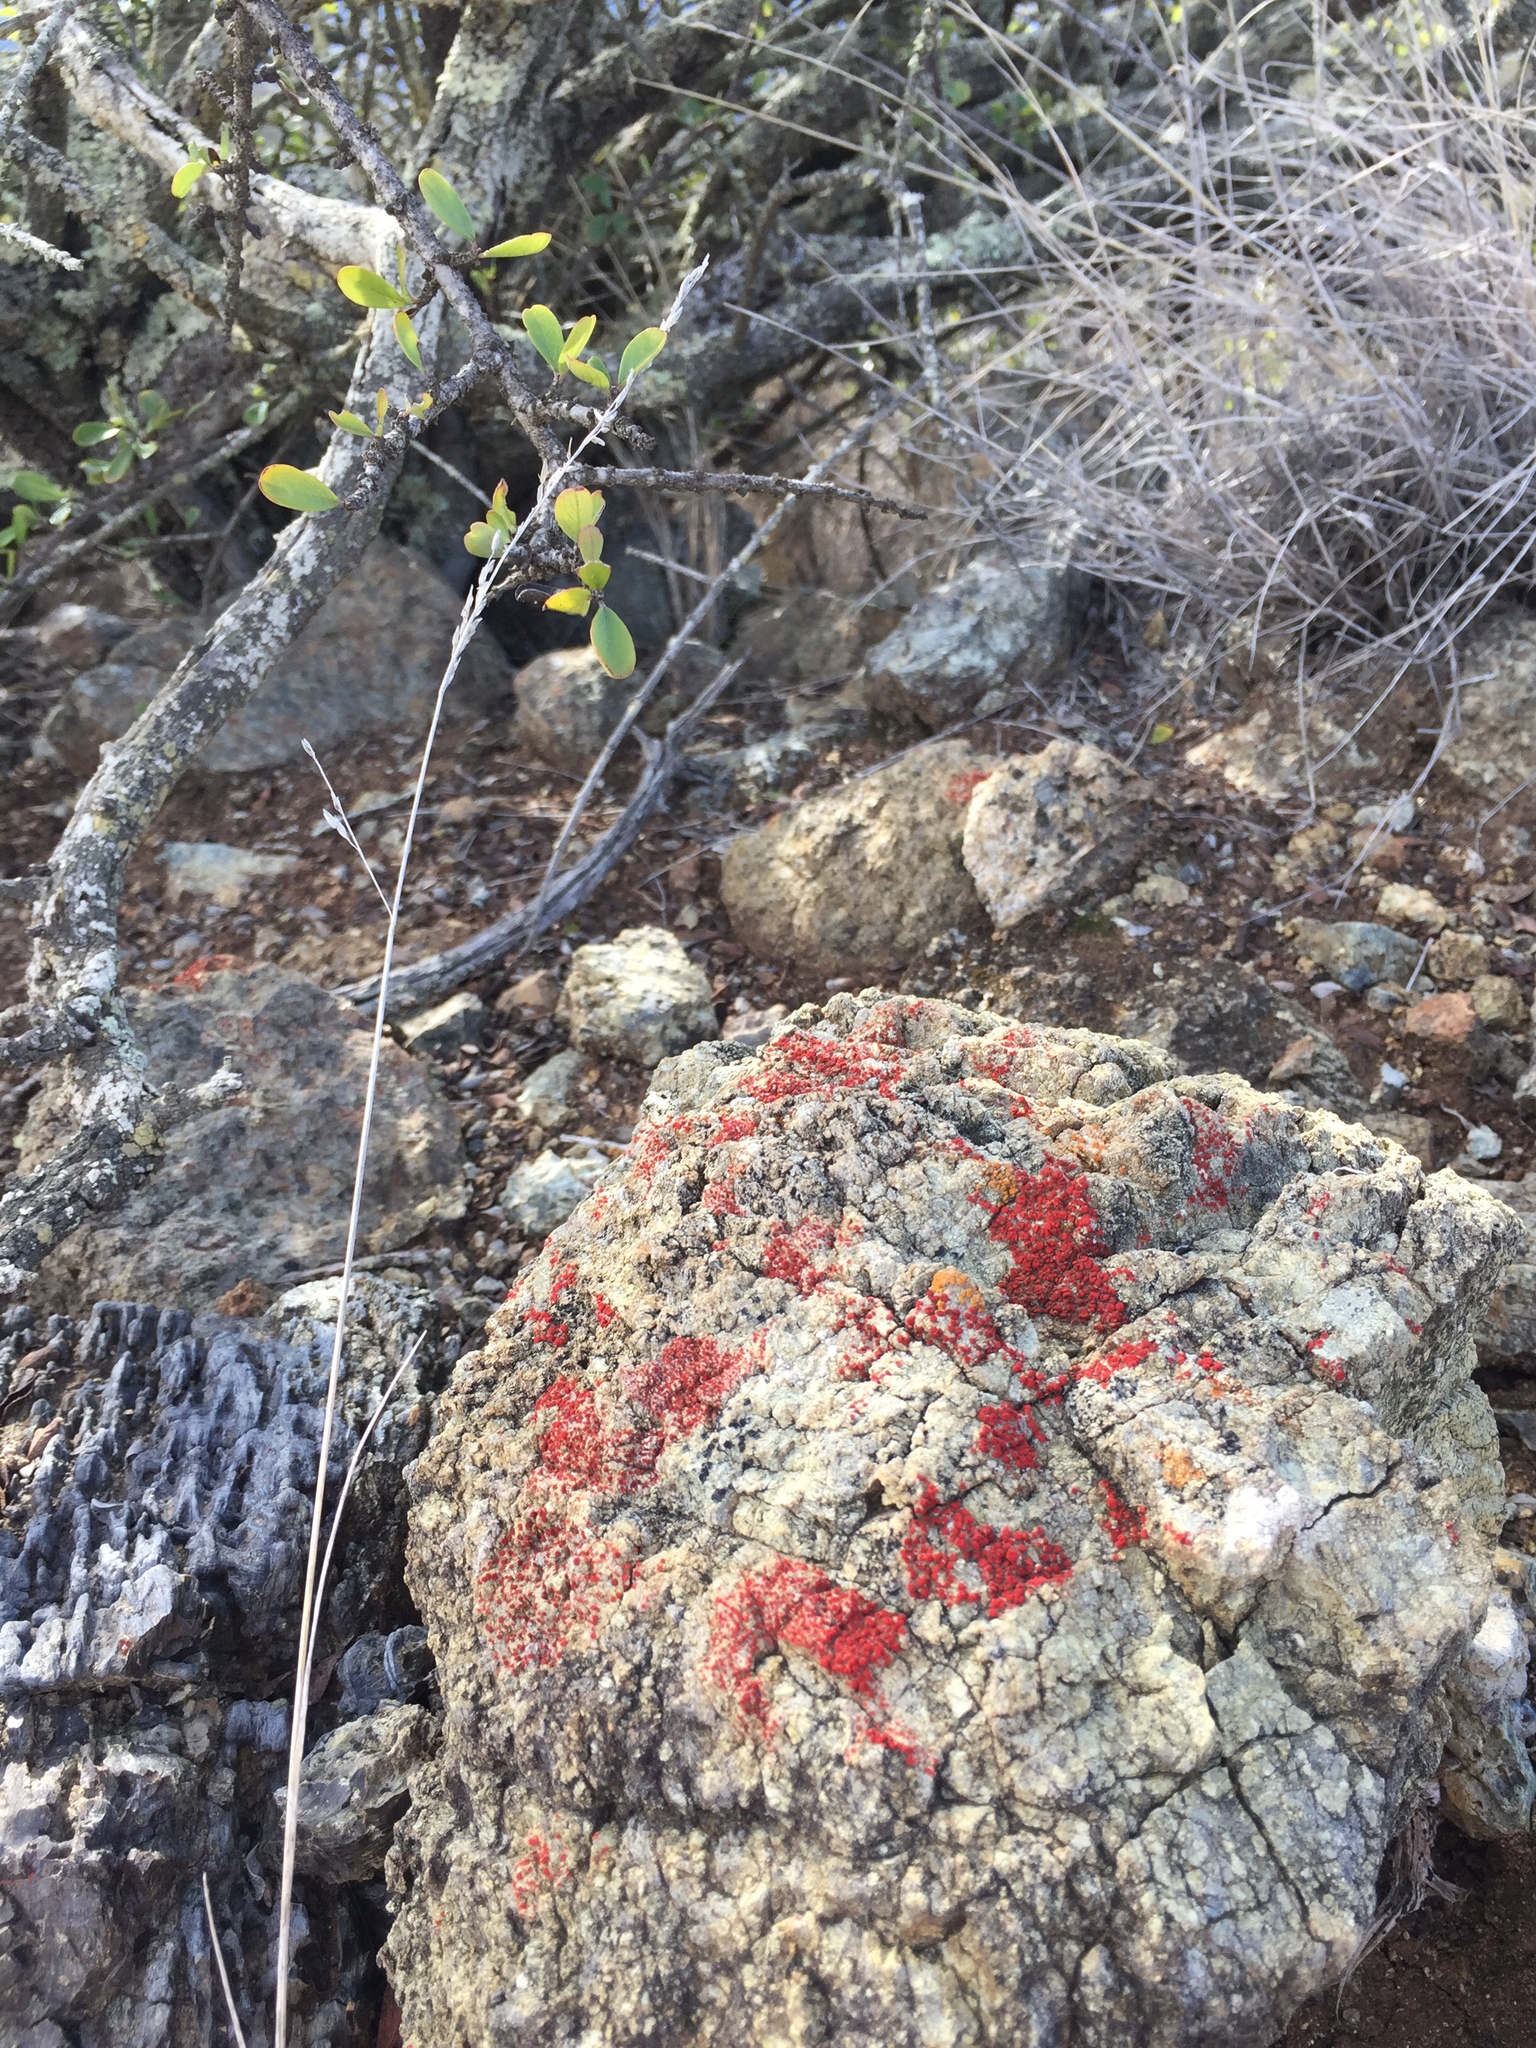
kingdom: Fungi
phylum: Ascomycota
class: Lecanoromycetes
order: Teloschistales
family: Teloschistaceae
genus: Tomnashia
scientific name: Tomnashia luteominia
